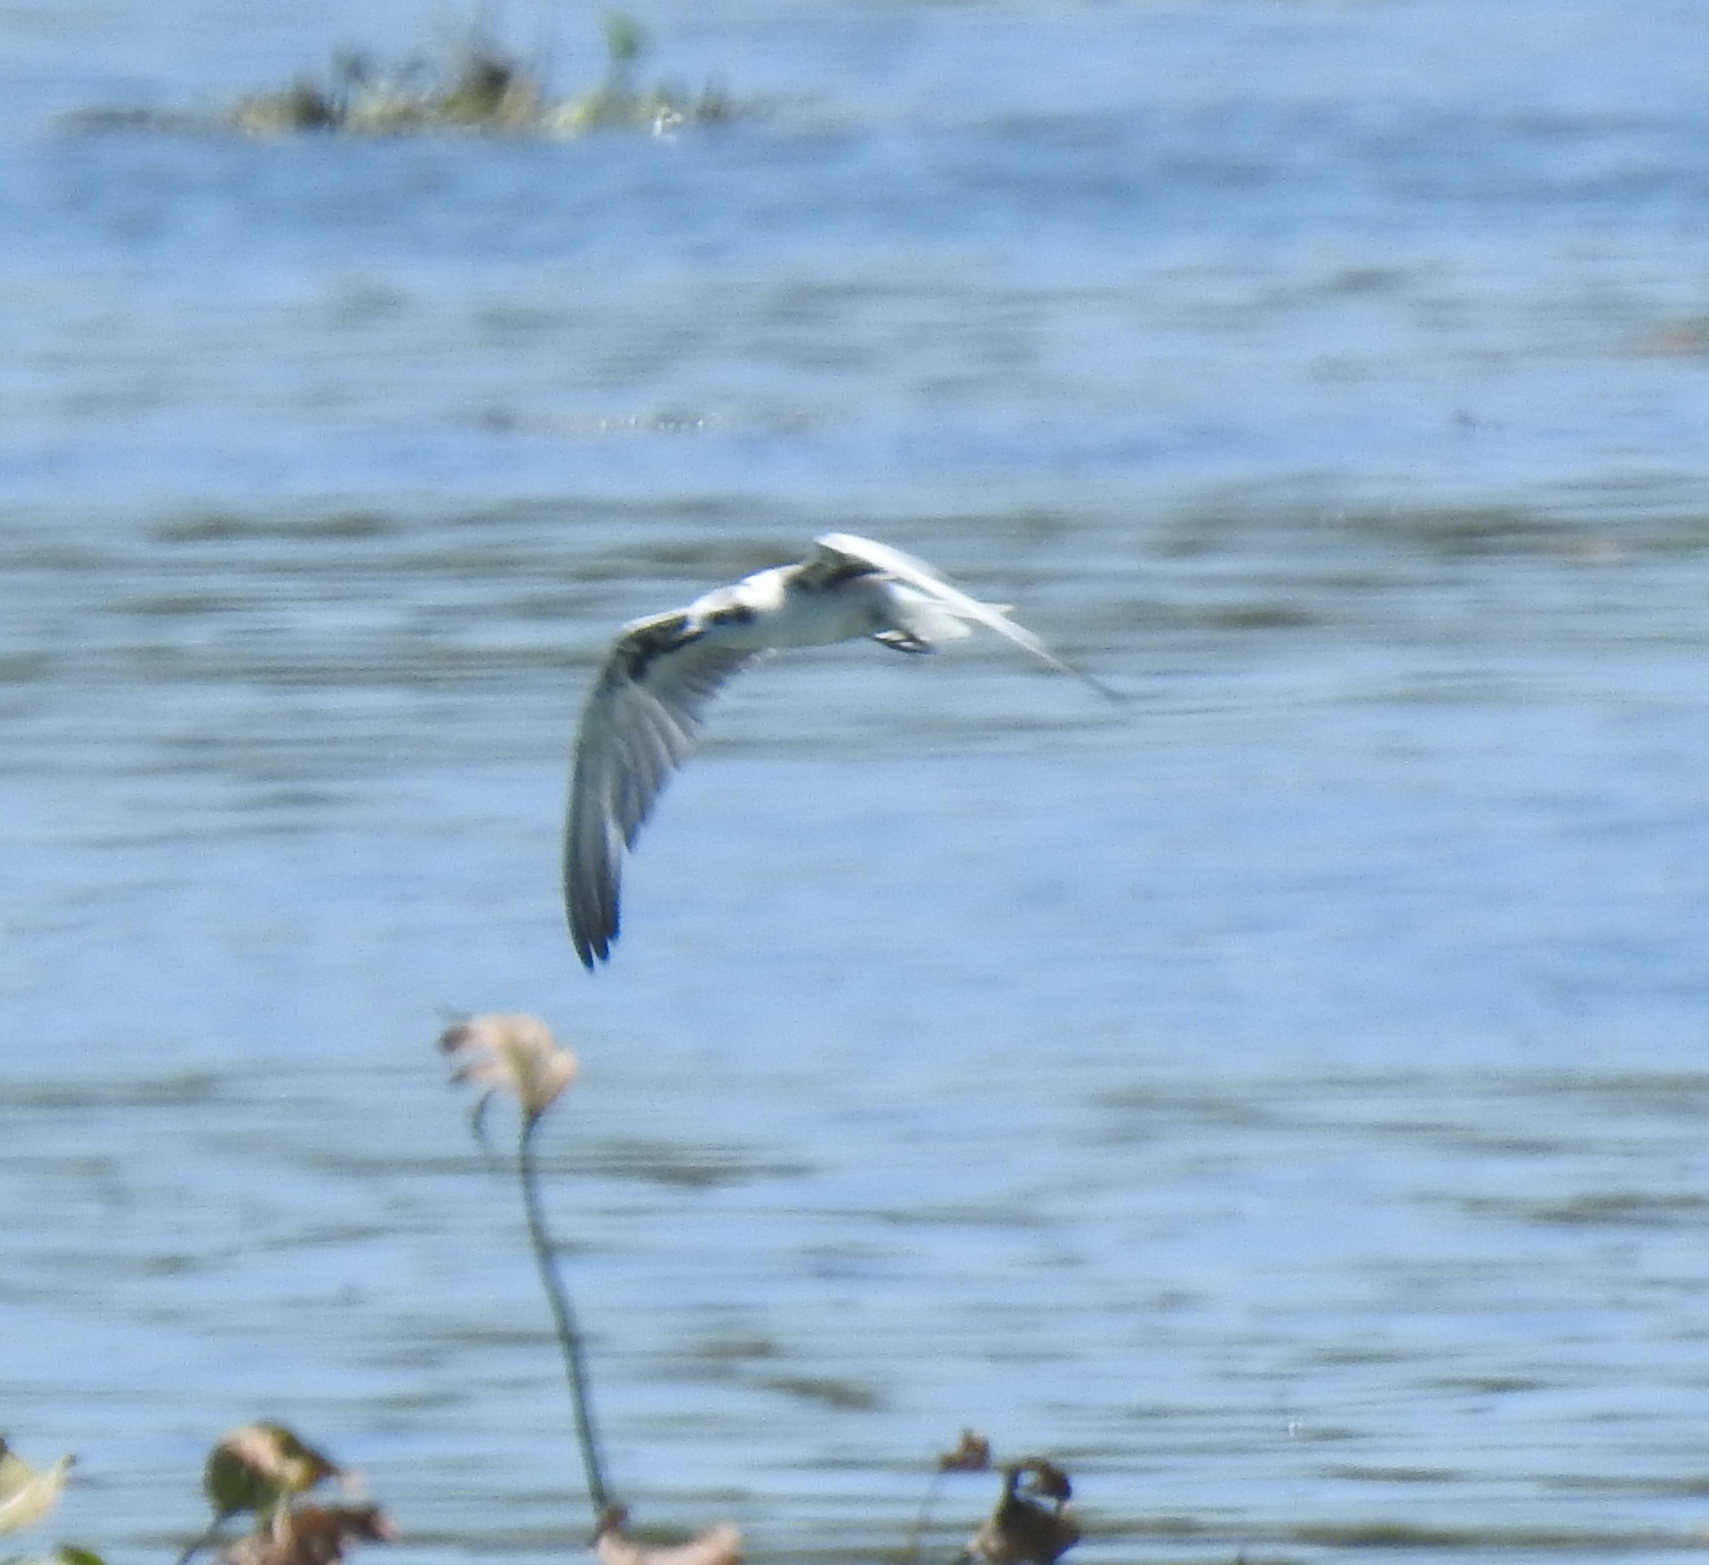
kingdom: Animalia
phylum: Chordata
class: Aves
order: Charadriiformes
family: Laridae
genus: Chroicocephalus
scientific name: Chroicocephalus cirrocephalus
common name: Grey-headed gull
